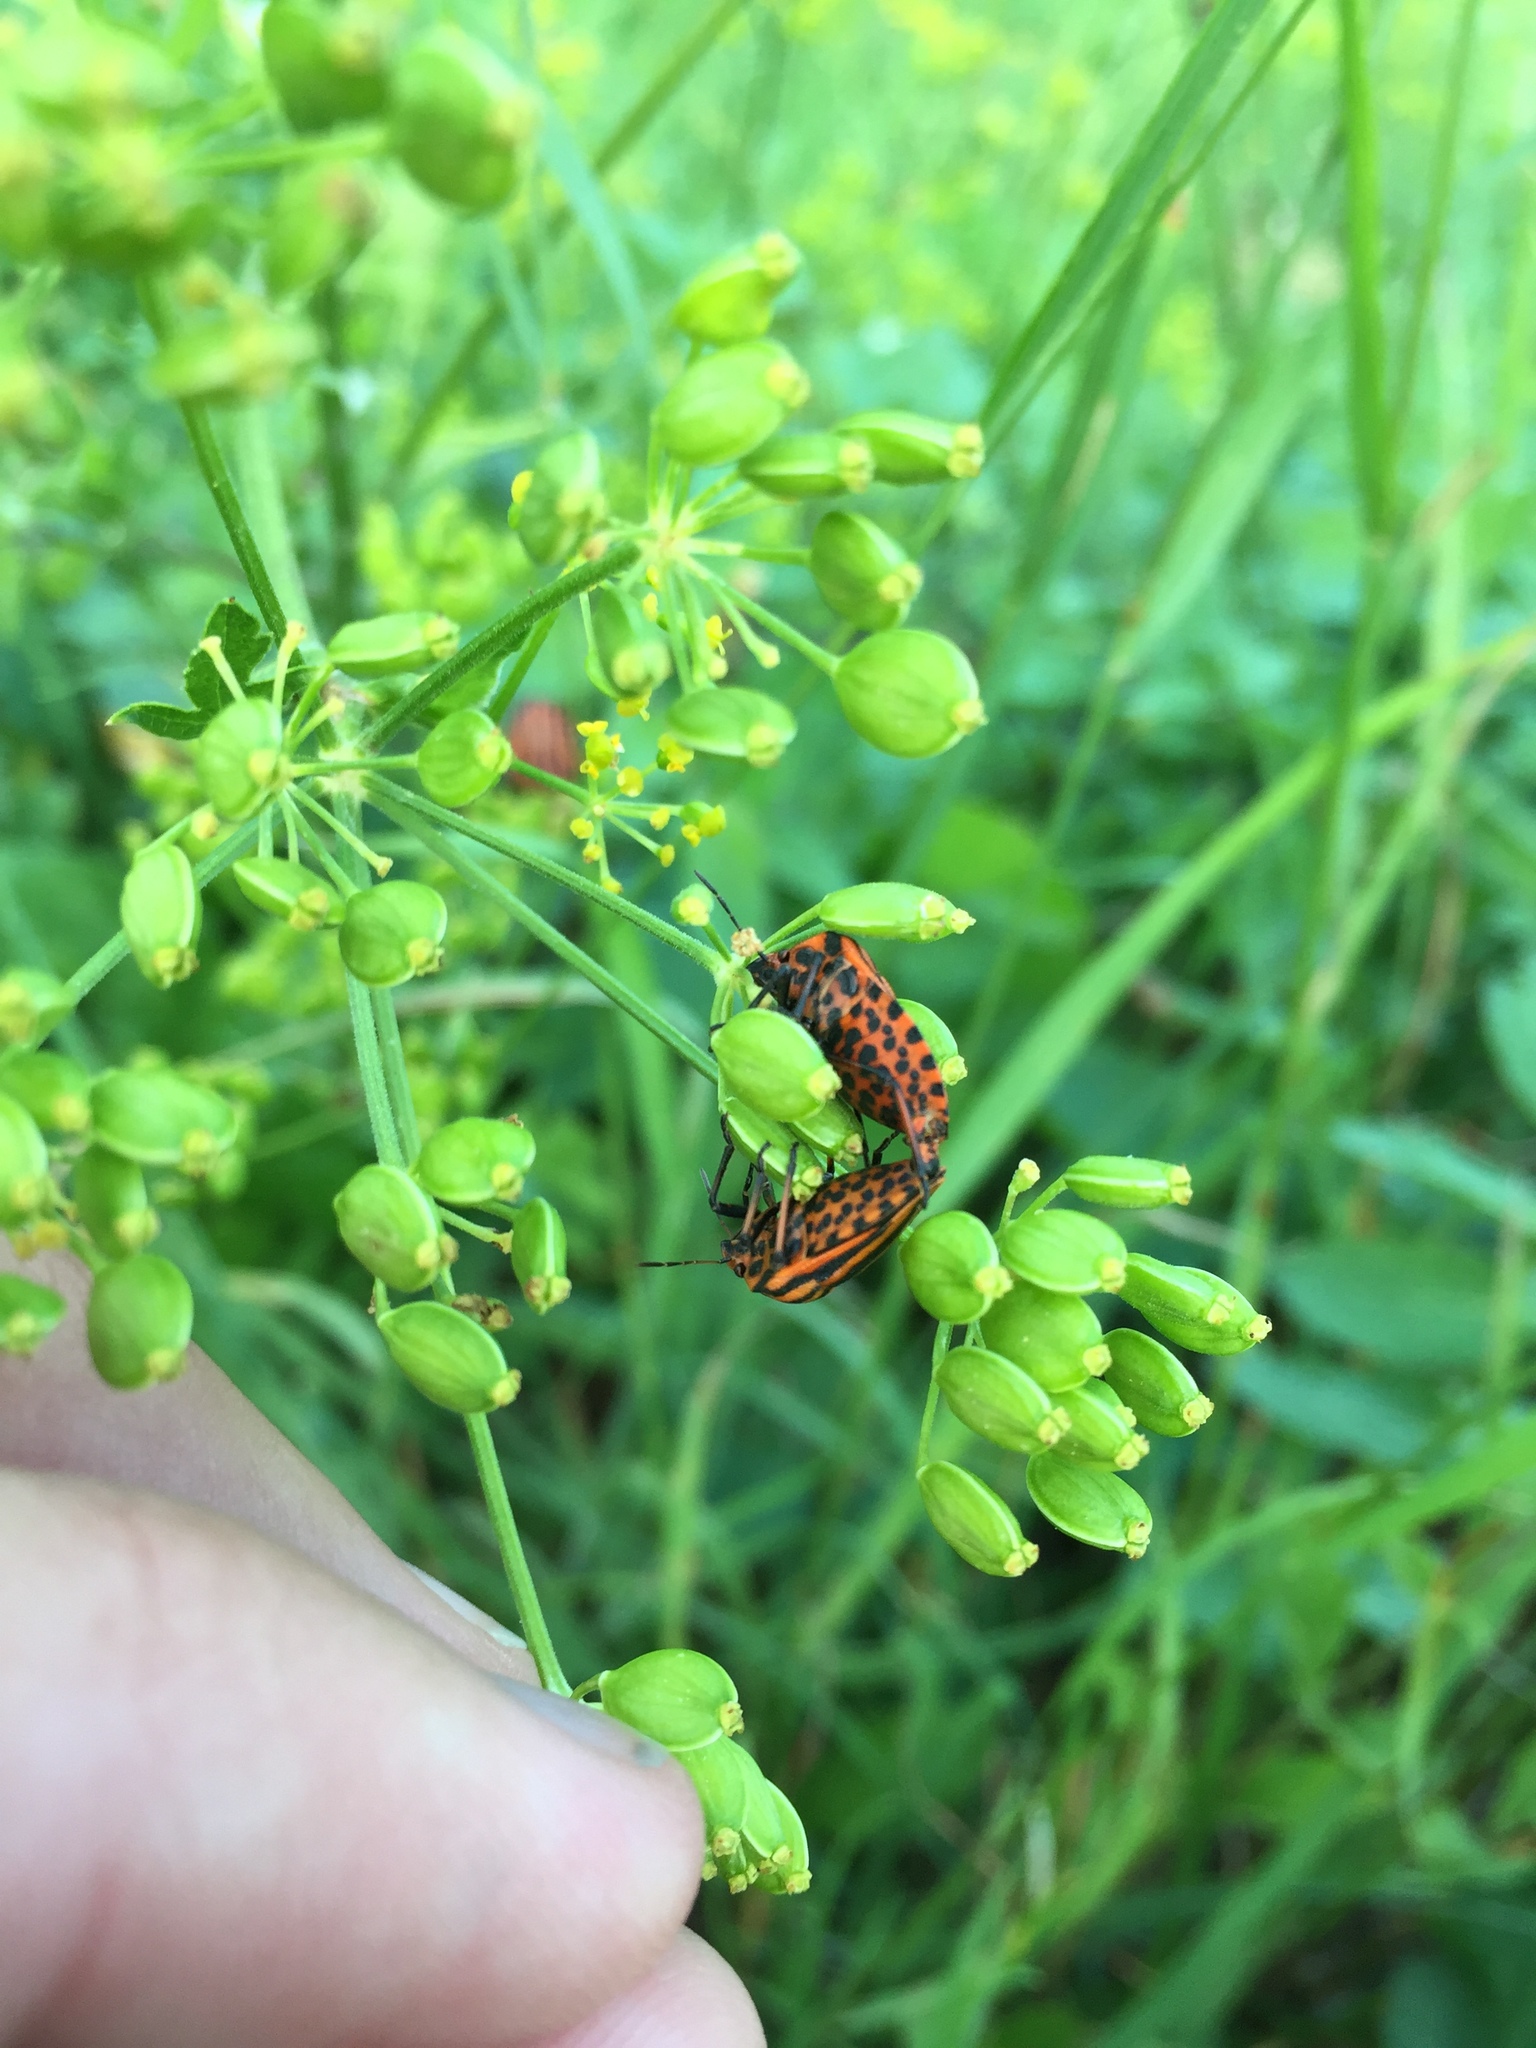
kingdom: Animalia
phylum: Arthropoda
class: Insecta
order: Hemiptera
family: Pentatomidae
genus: Graphosoma
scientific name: Graphosoma italicum
